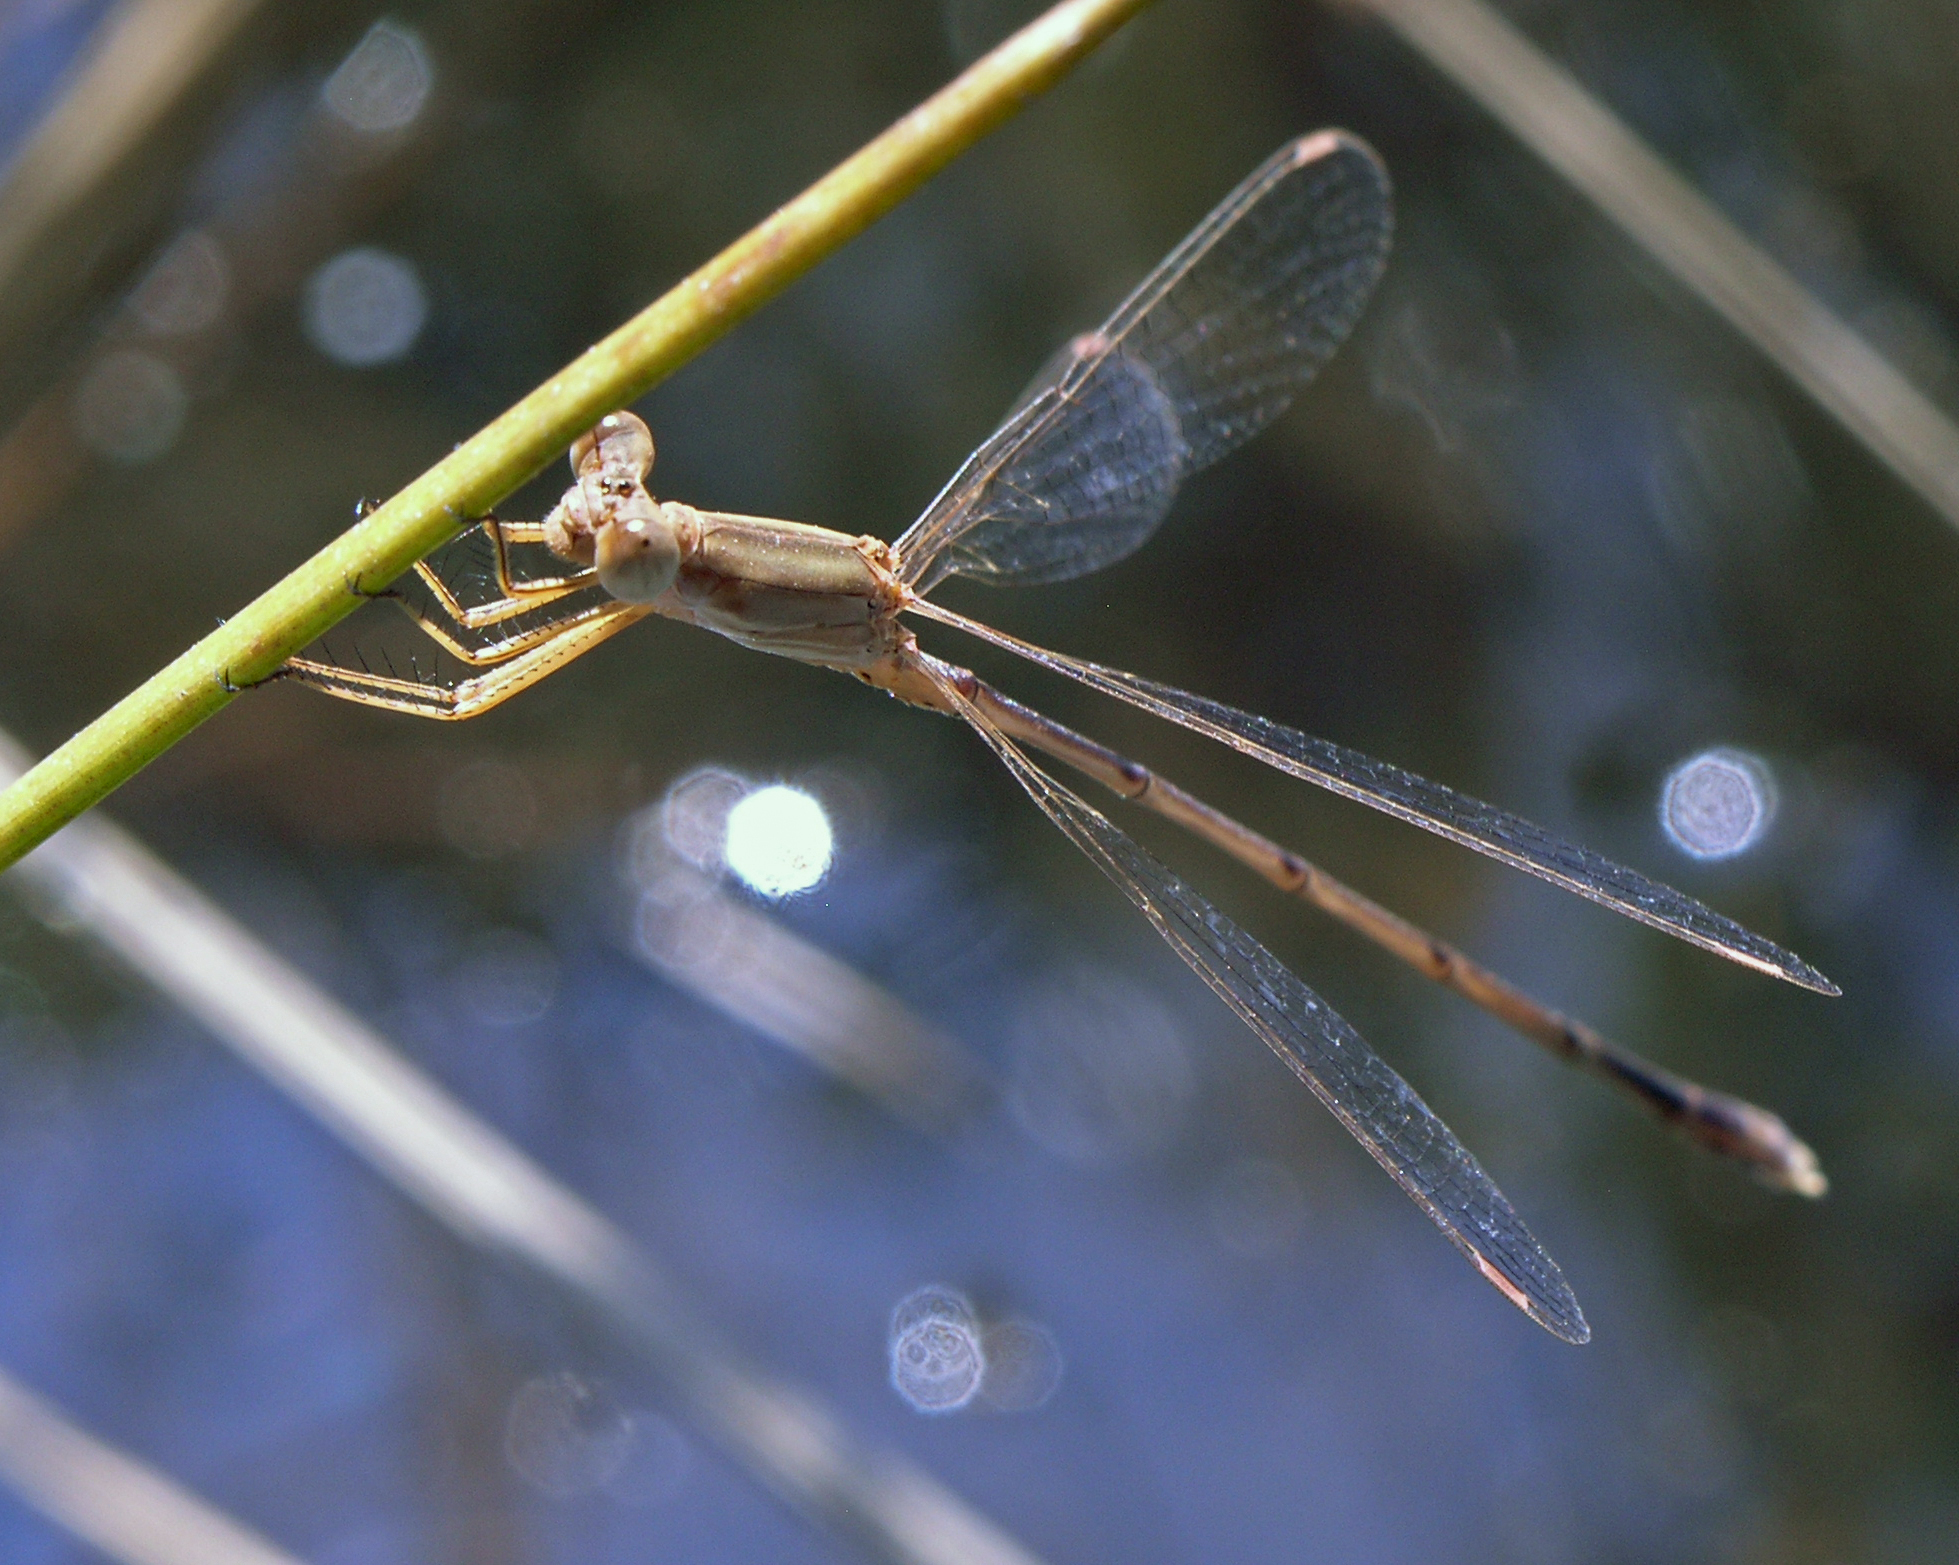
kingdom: Animalia
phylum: Arthropoda
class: Insecta
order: Odonata
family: Lestidae
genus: Lestes
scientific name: Lestes concinnus
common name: Dusky spreadwing
